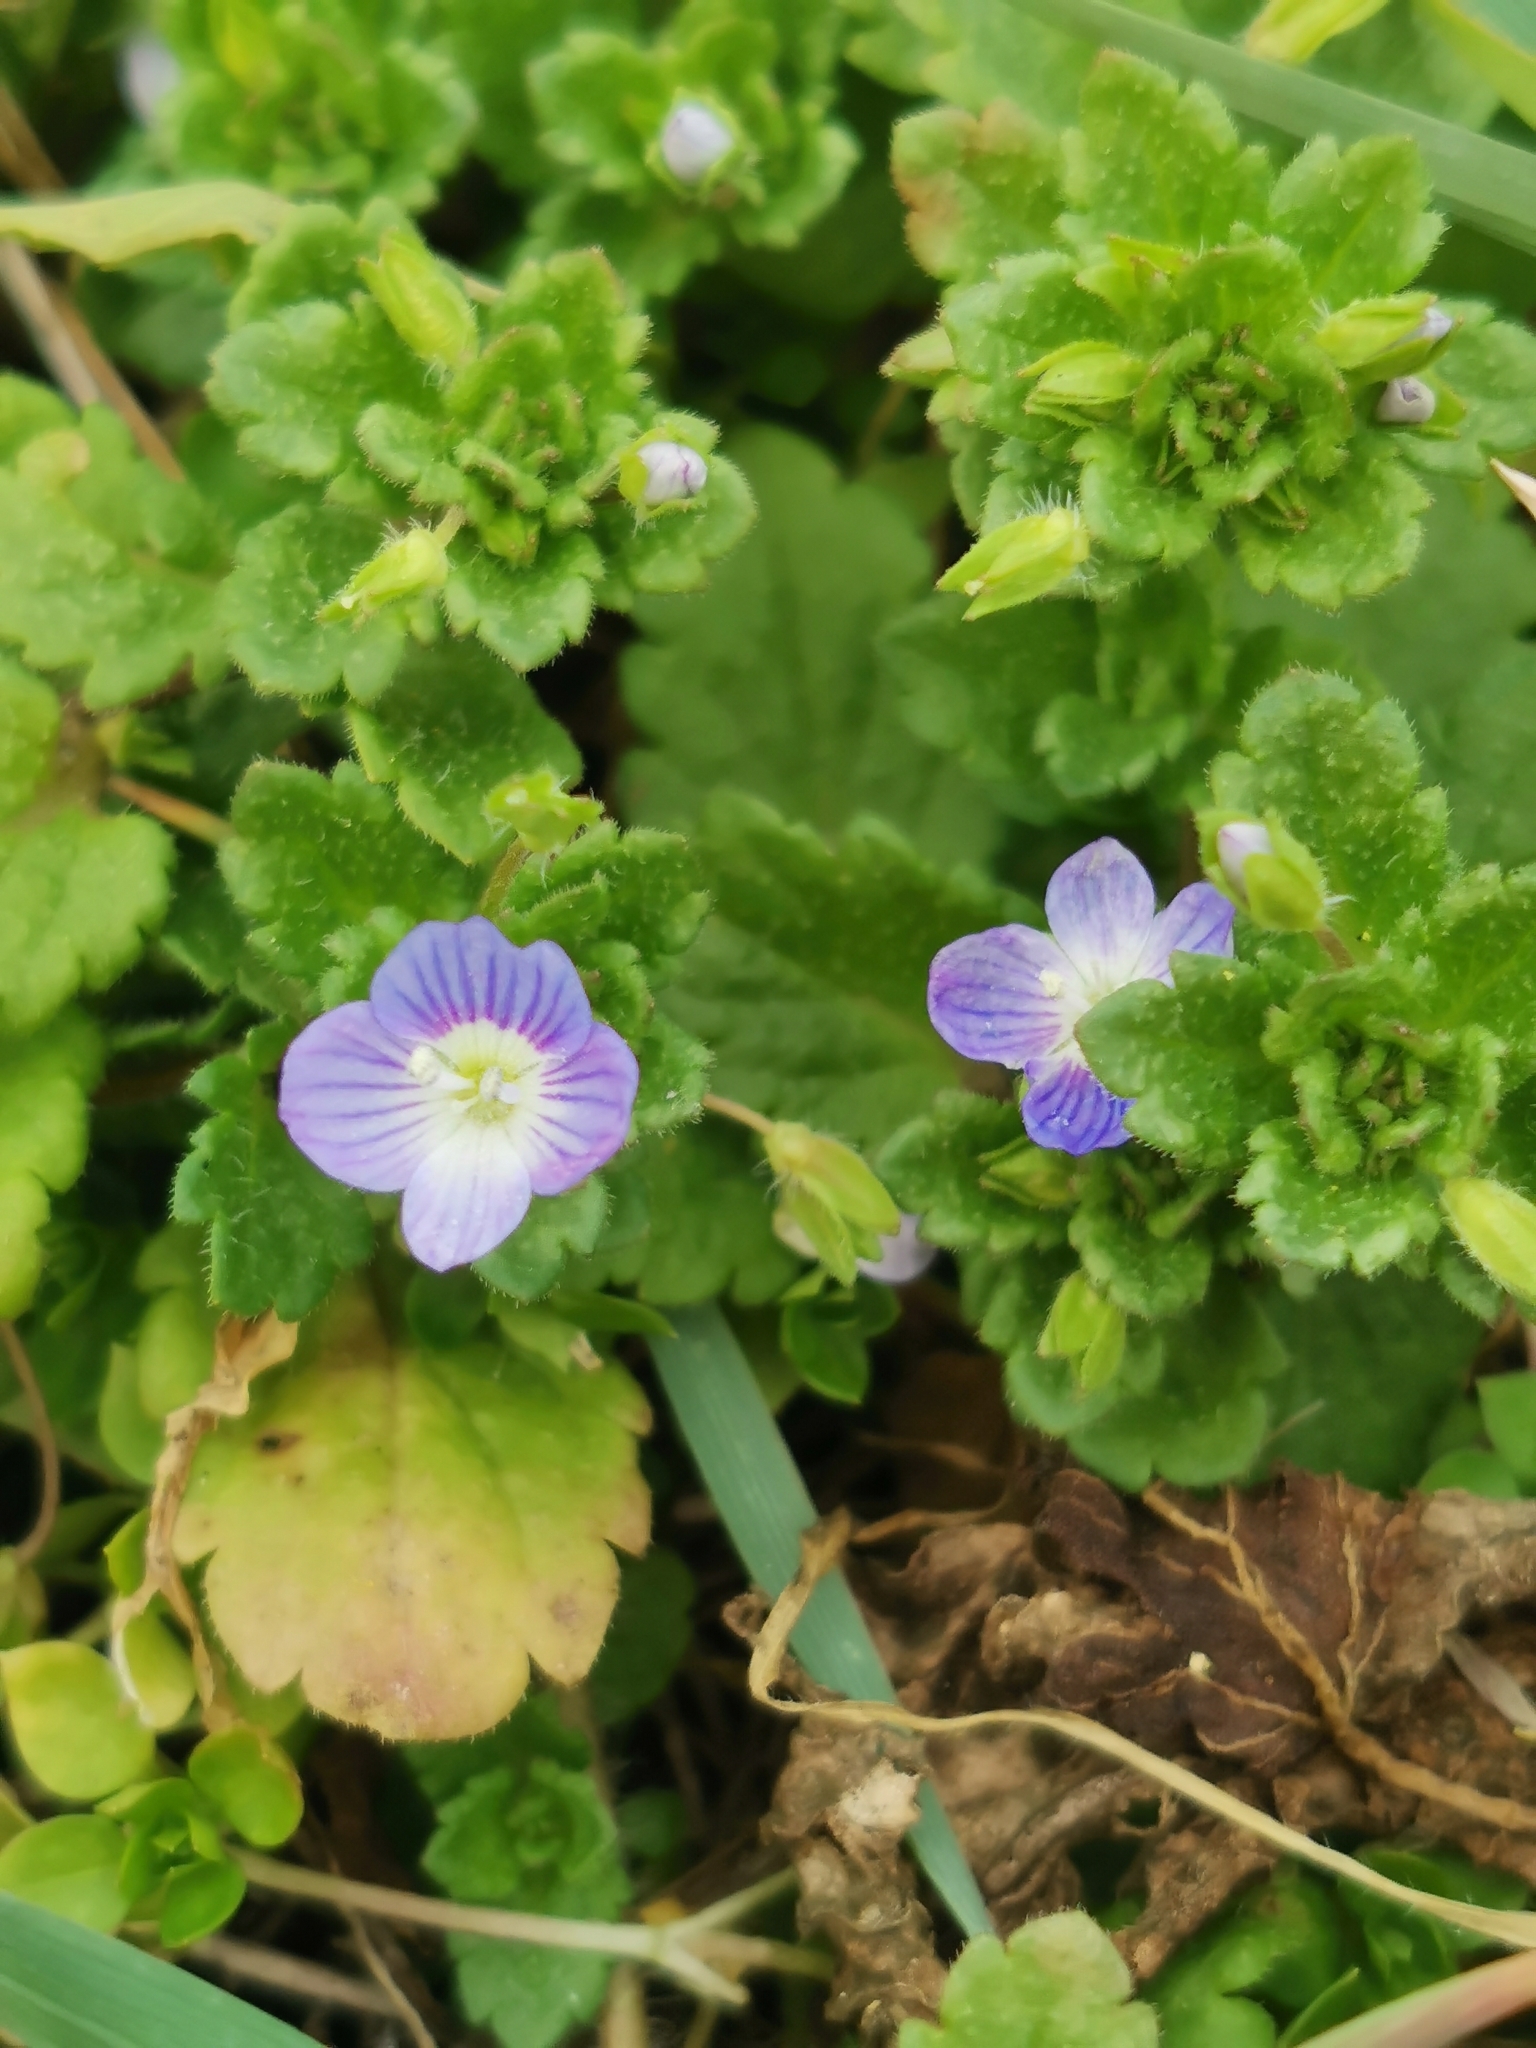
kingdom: Plantae
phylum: Tracheophyta
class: Magnoliopsida
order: Lamiales
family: Plantaginaceae
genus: Veronica
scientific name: Veronica persica
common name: Common field-speedwell
